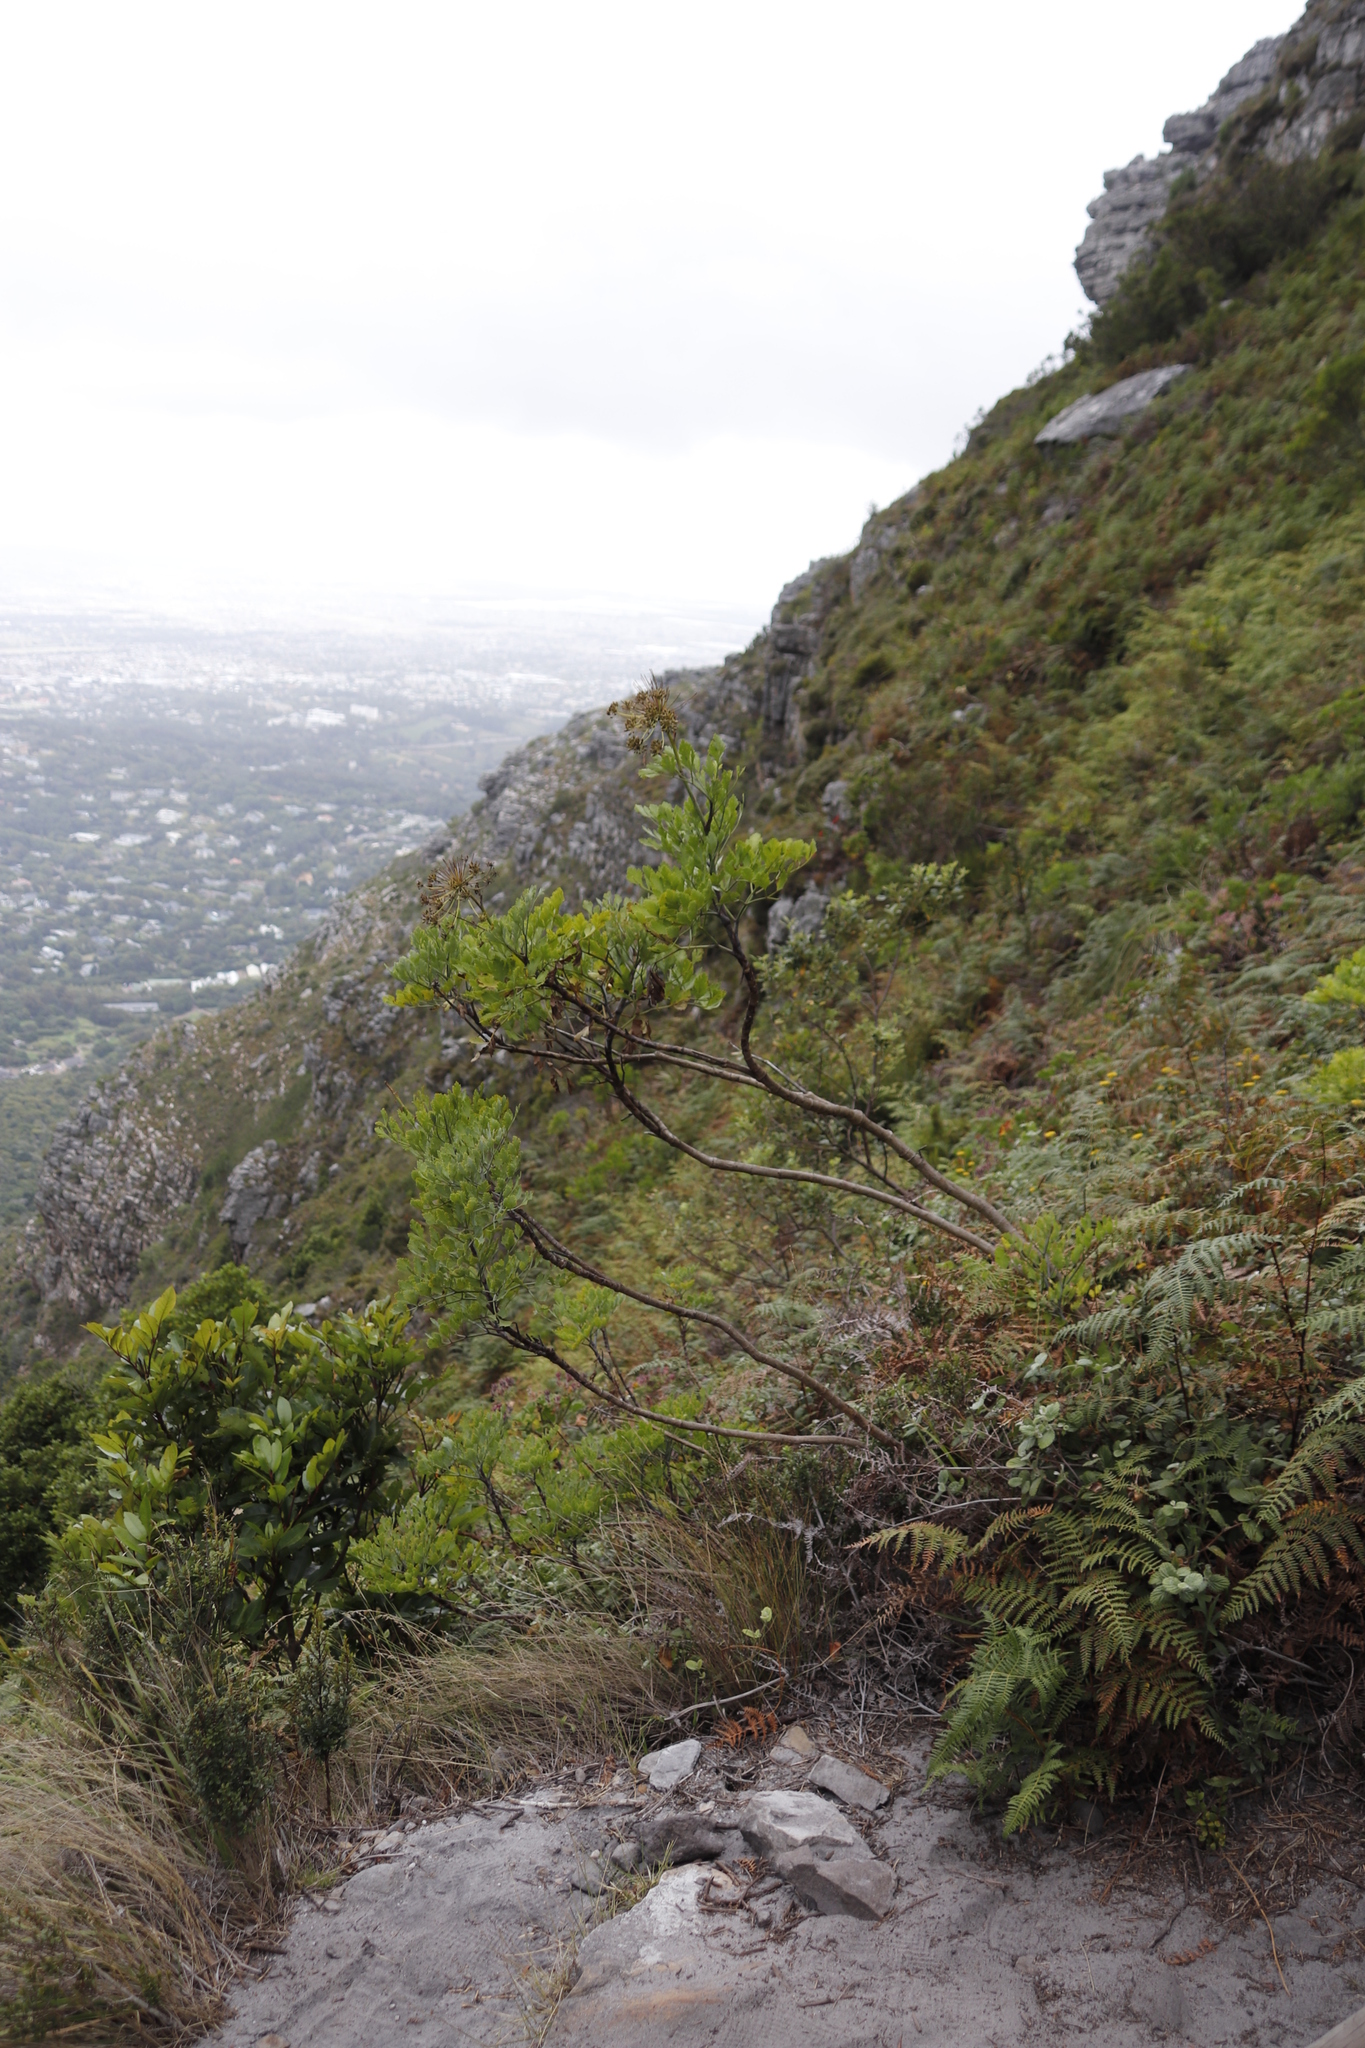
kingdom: Plantae
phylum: Tracheophyta
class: Magnoliopsida
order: Apiales
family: Apiaceae
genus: Notobubon
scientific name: Notobubon galbanum
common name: Blisterbush
